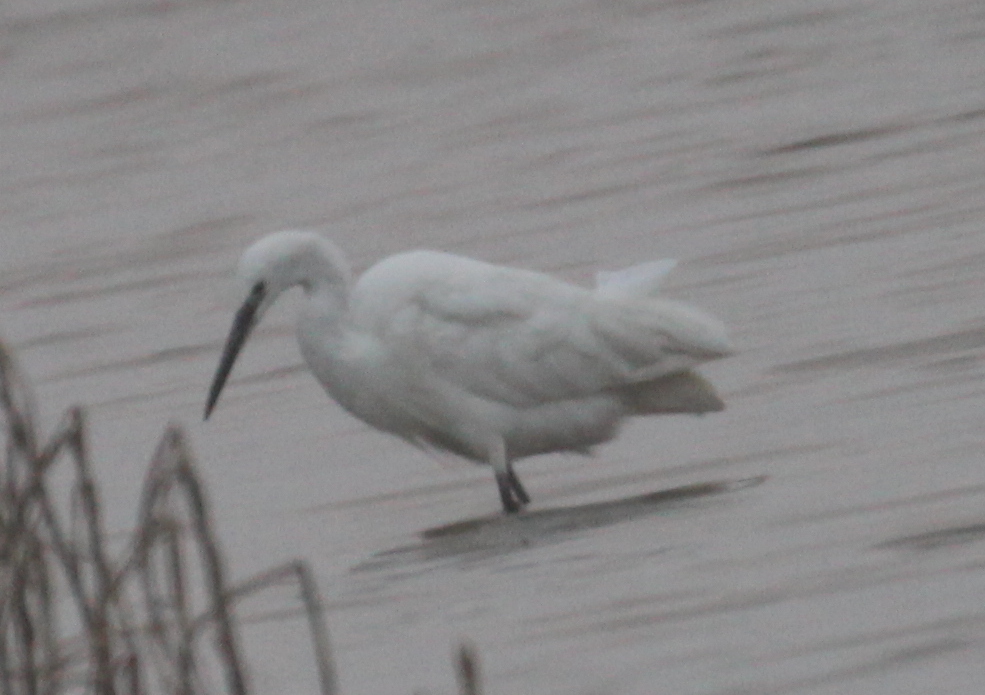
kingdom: Animalia
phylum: Chordata
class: Aves
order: Pelecaniformes
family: Ardeidae
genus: Egretta
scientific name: Egretta garzetta
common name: Little egret
